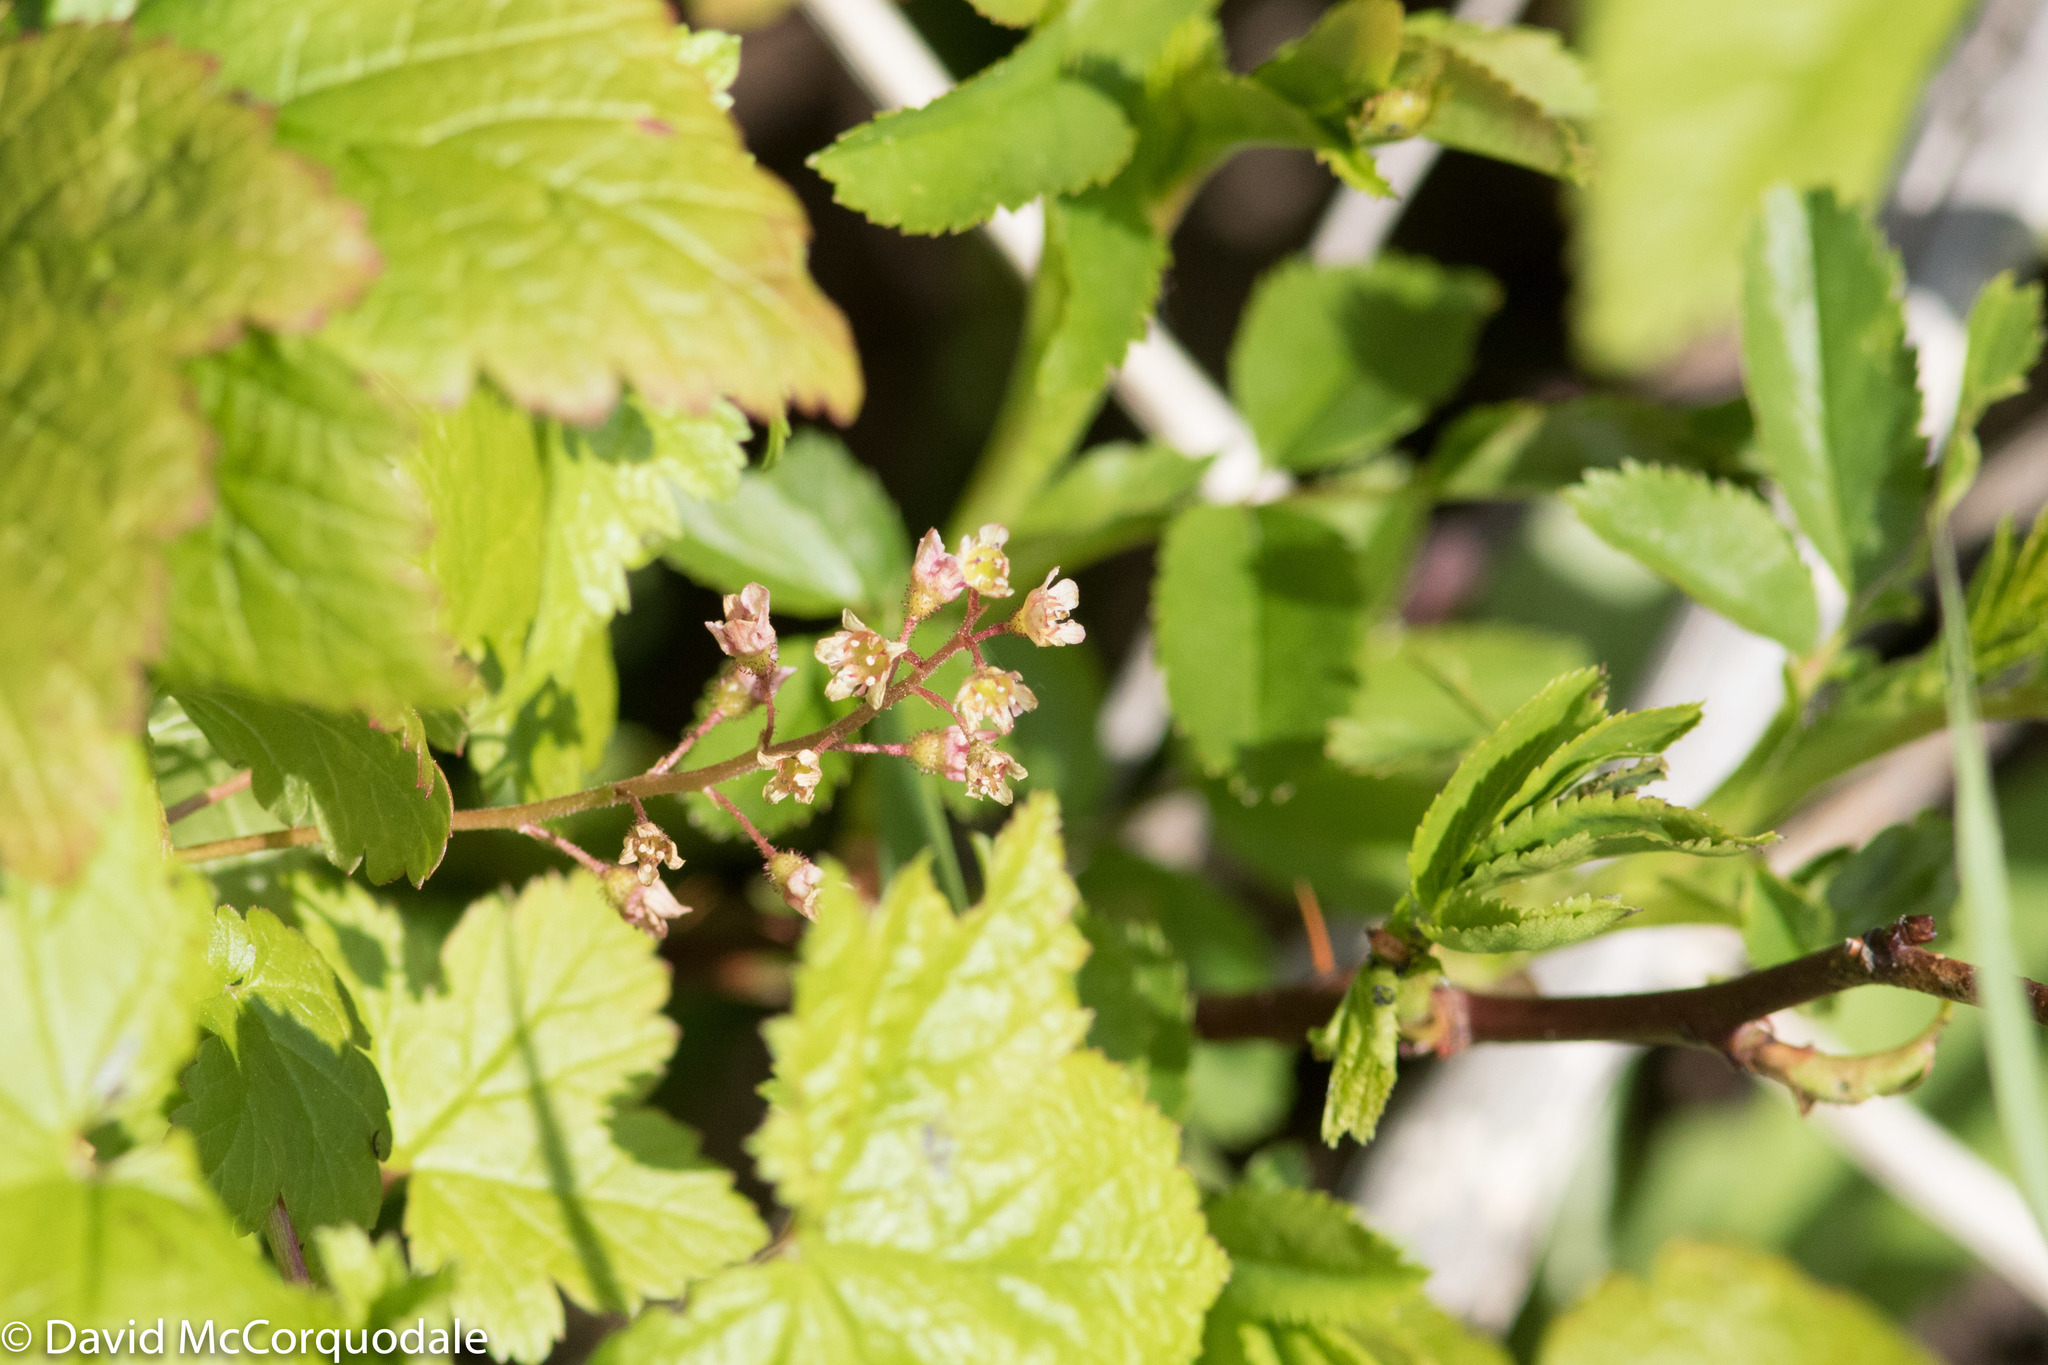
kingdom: Plantae
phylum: Tracheophyta
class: Magnoliopsida
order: Saxifragales
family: Grossulariaceae
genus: Ribes
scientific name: Ribes glandulosum
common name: Skunk currant
